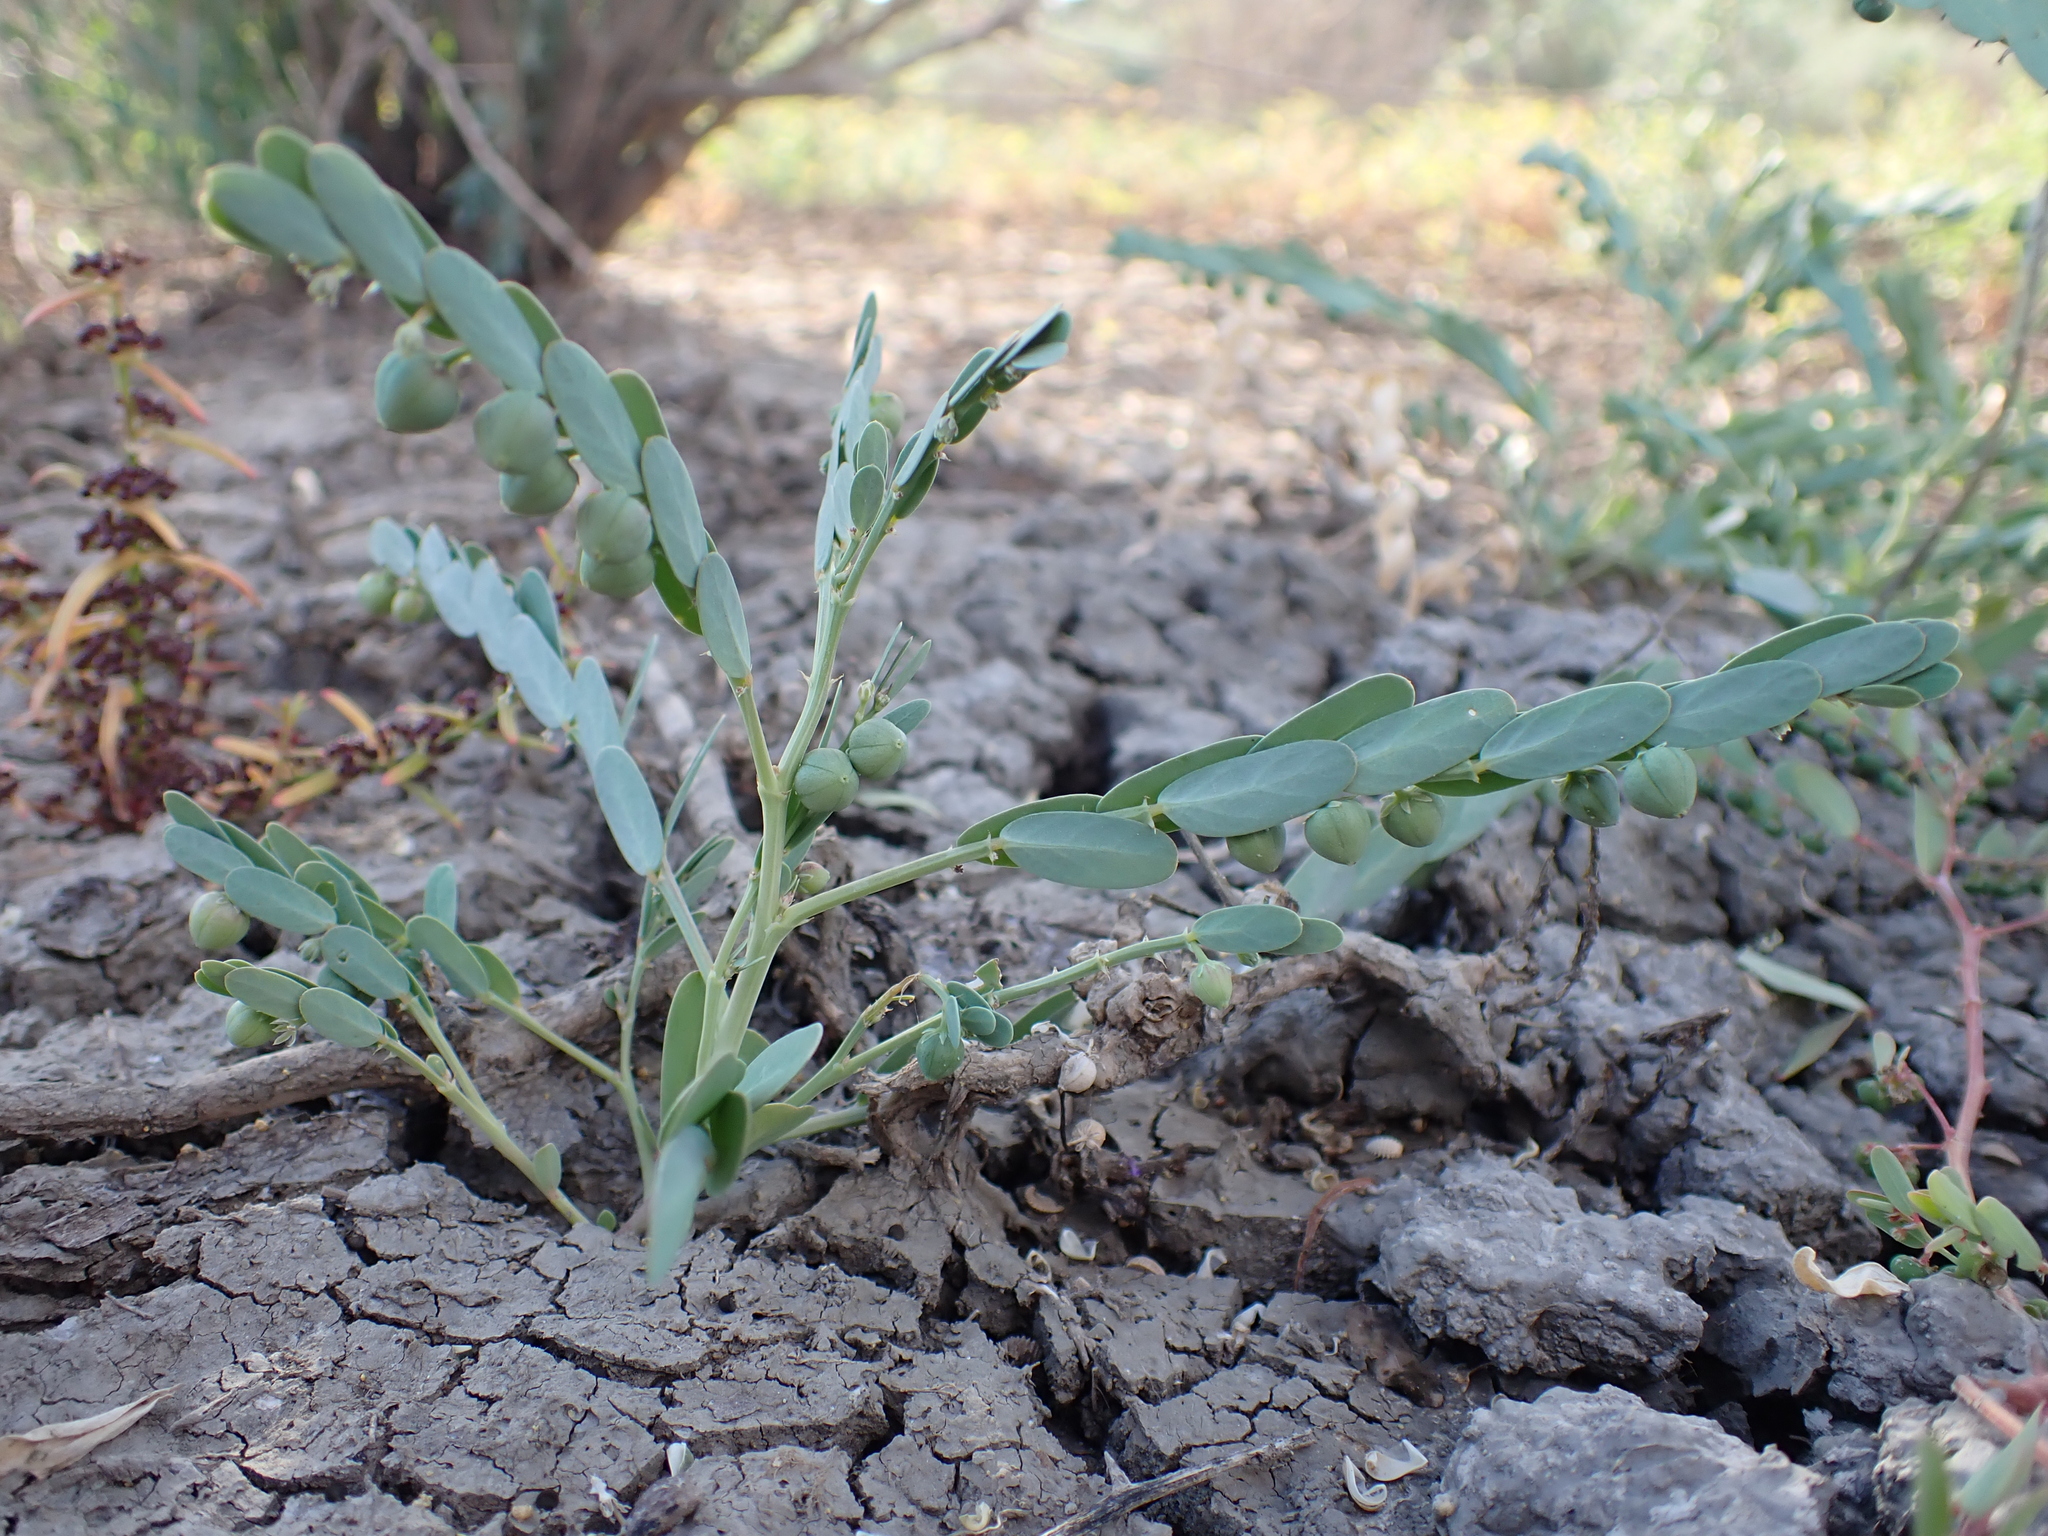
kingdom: Plantae
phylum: Tracheophyta
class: Magnoliopsida
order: Malpighiales
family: Phyllanthaceae
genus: Synostemon
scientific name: Synostemon trachyspermus
